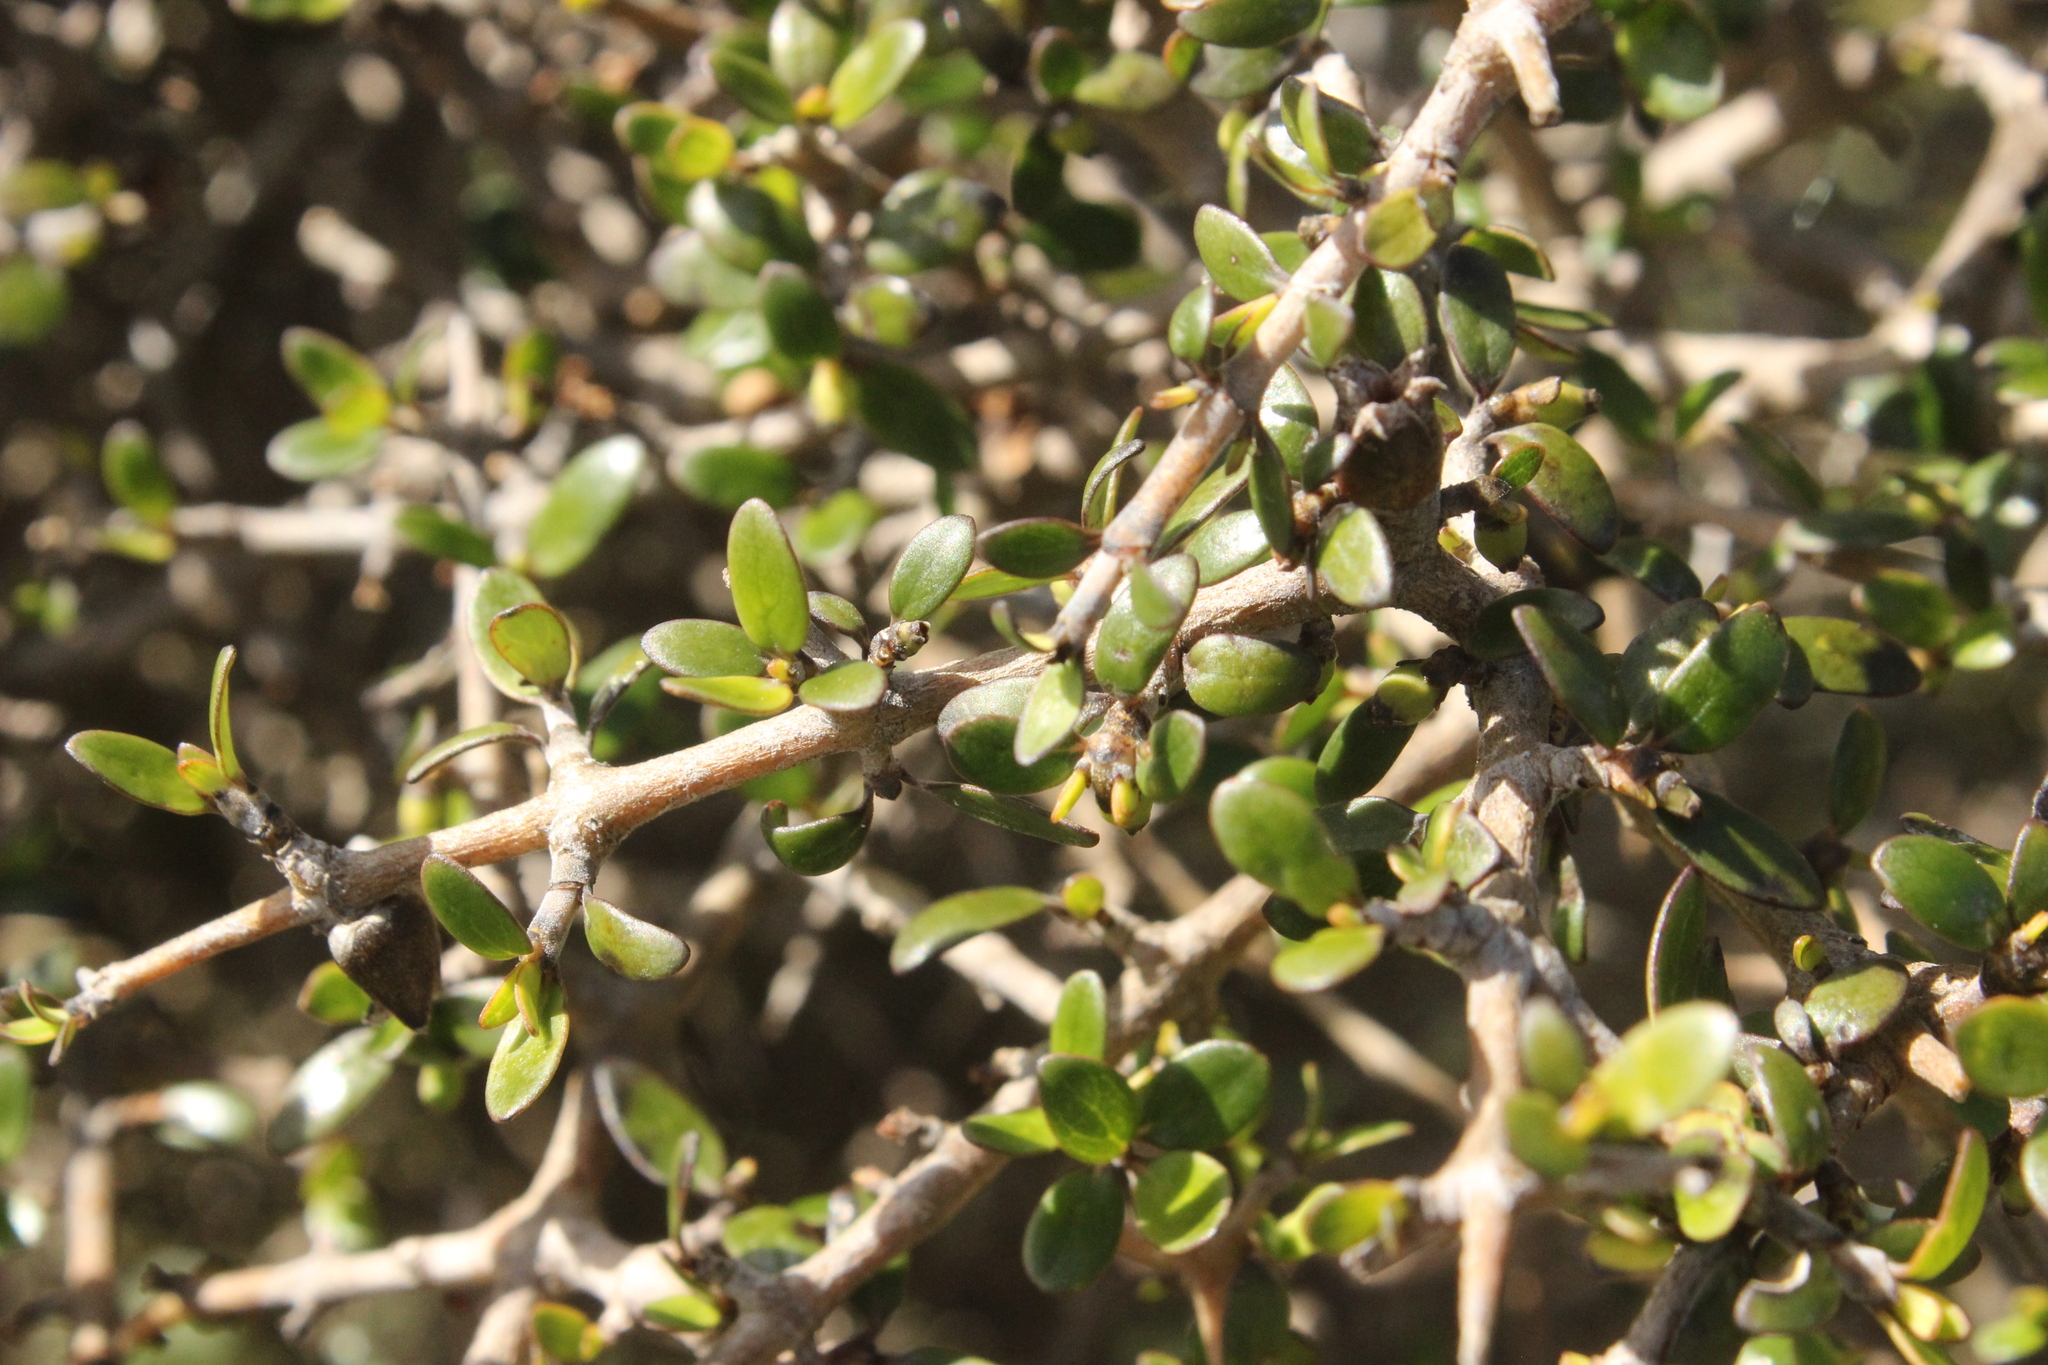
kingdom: Plantae
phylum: Tracheophyta
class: Magnoliopsida
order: Gentianales
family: Rubiaceae
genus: Coprosma
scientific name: Coprosma propinqua
